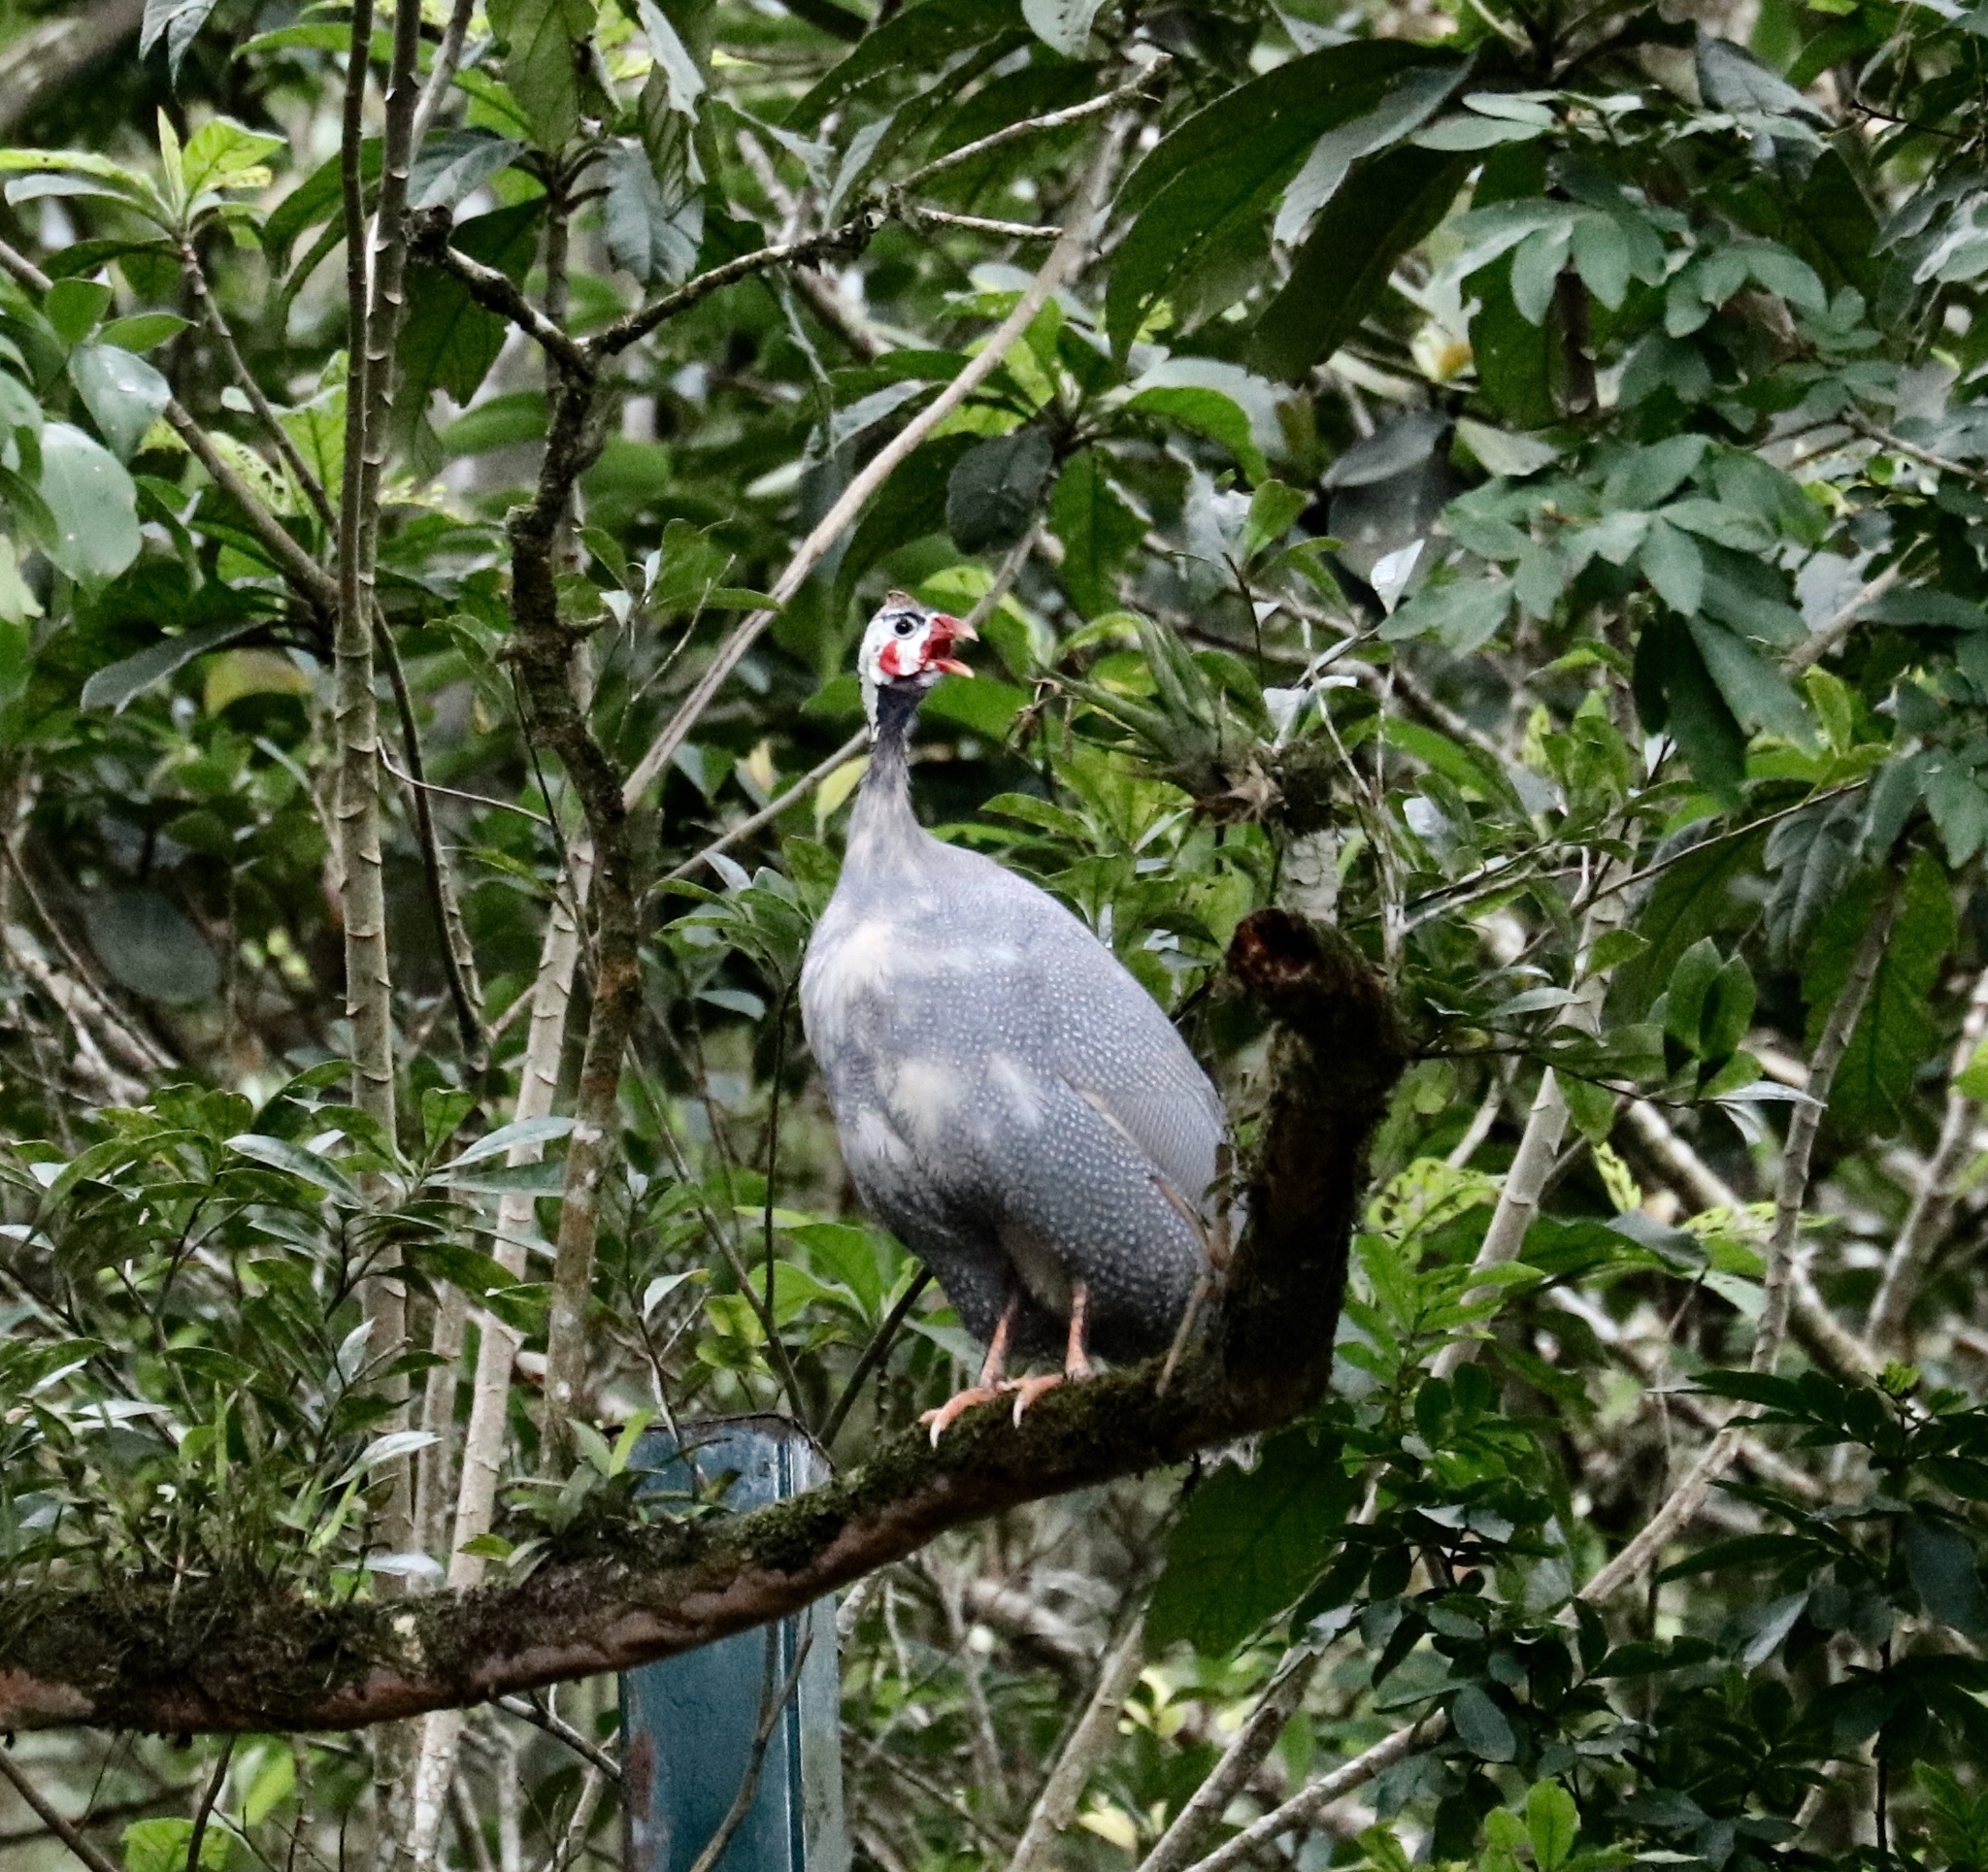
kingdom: Animalia
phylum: Chordata
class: Aves
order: Galliformes
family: Numididae
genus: Numida
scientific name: Numida meleagris
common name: Helmeted guineafowl
